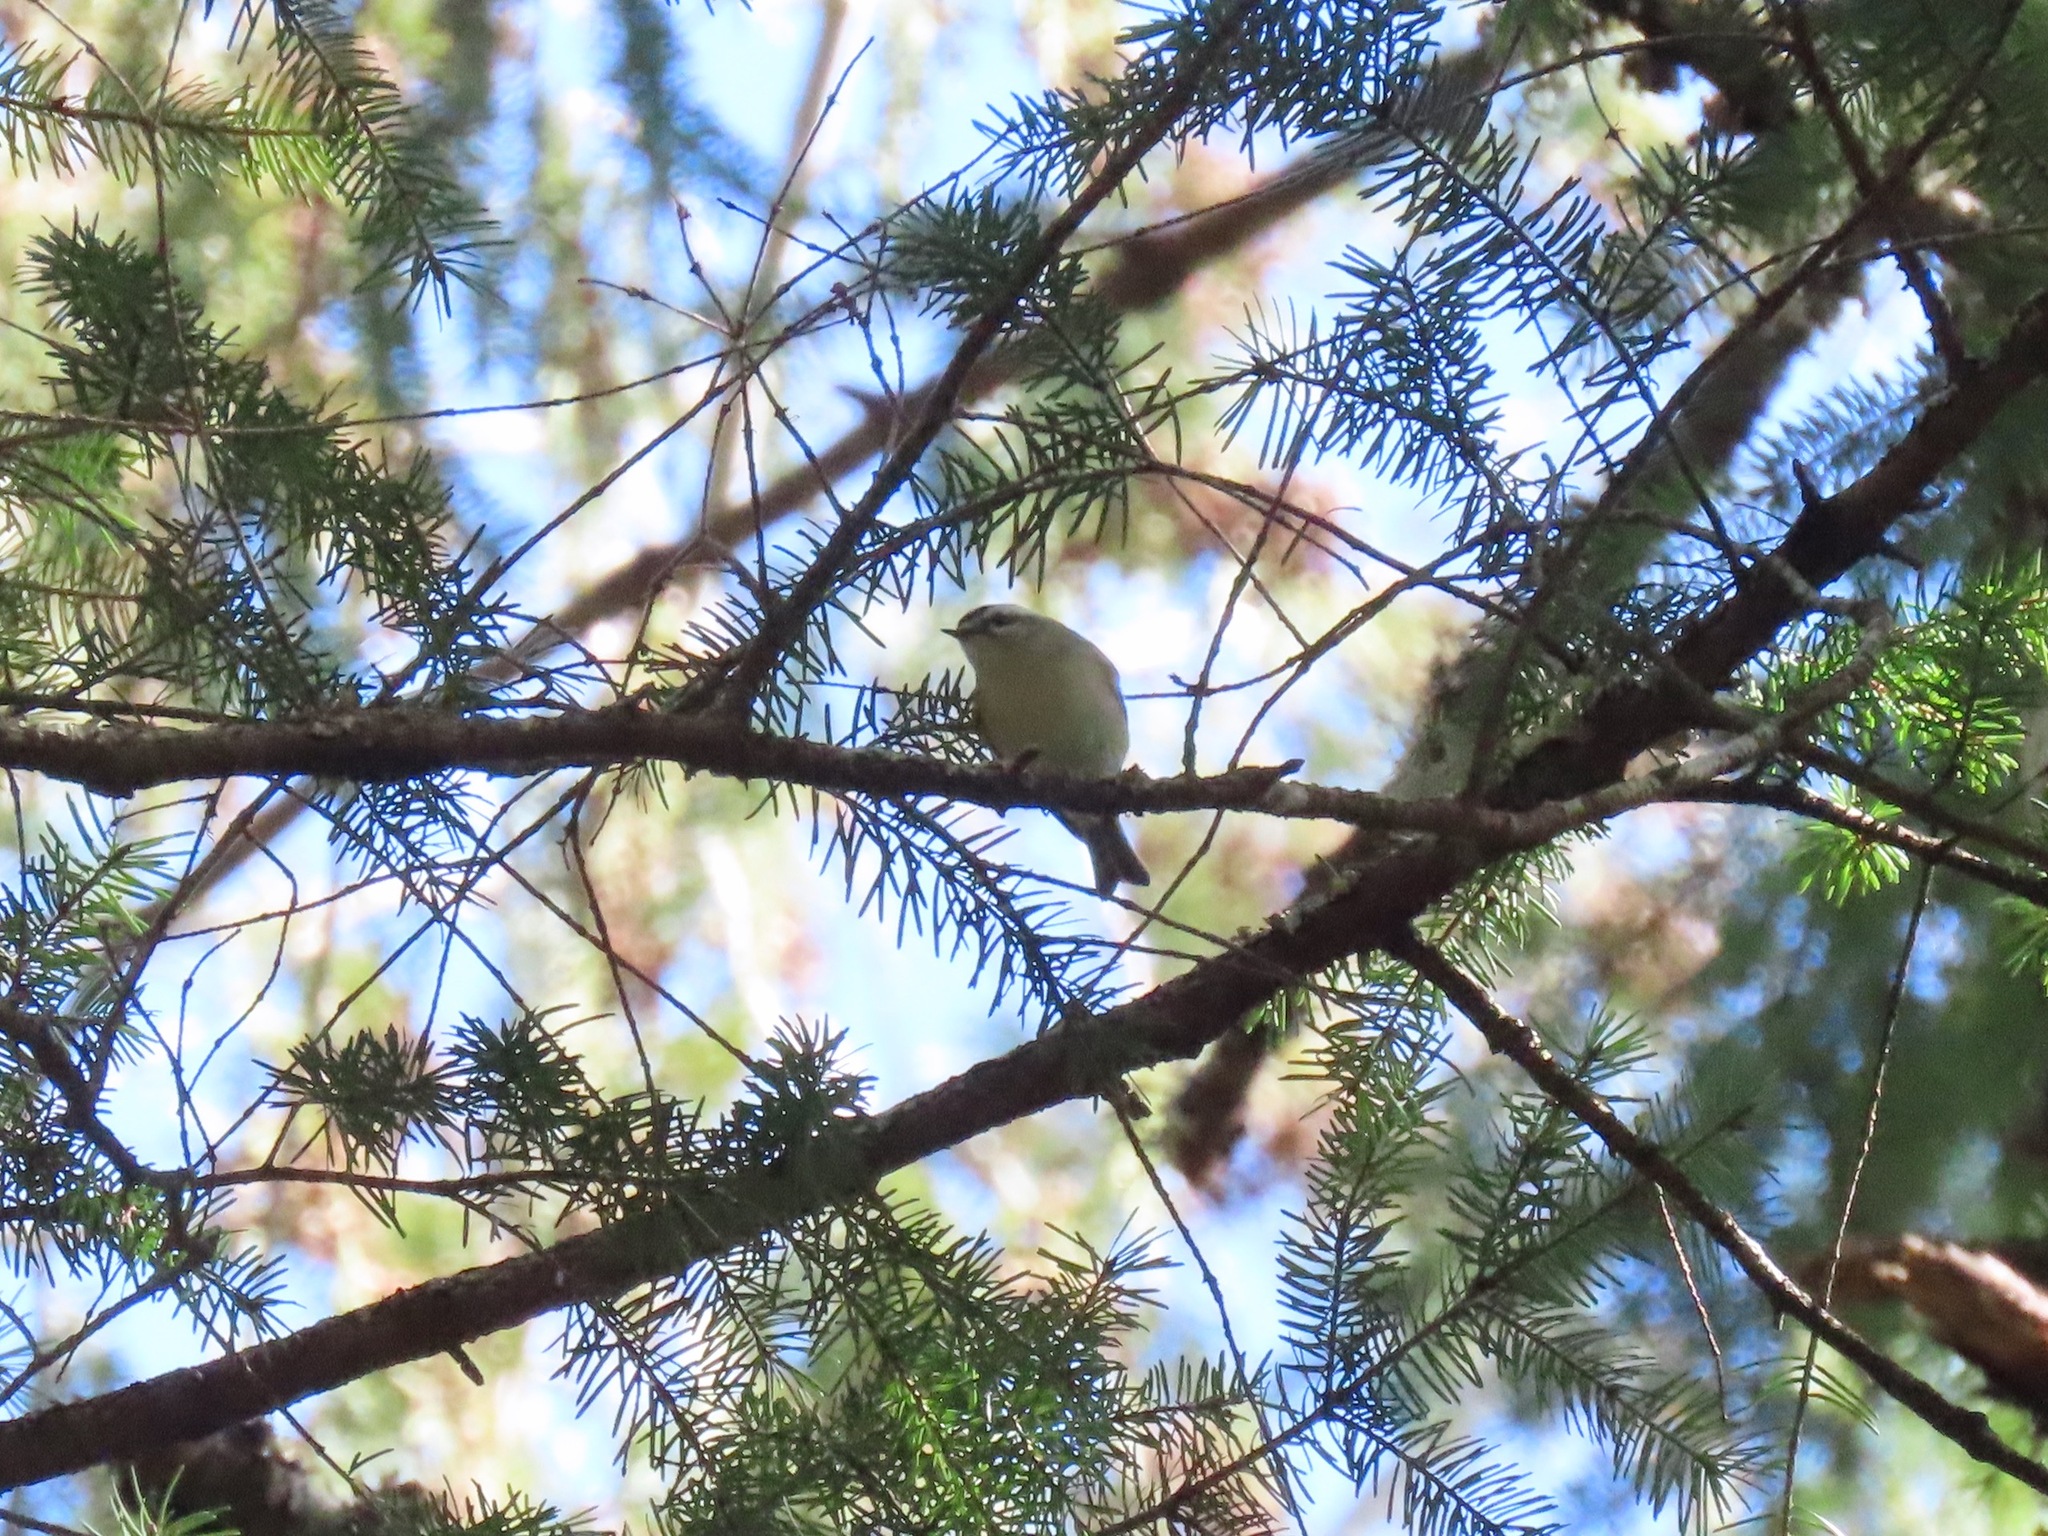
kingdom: Animalia
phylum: Chordata
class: Aves
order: Passeriformes
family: Regulidae
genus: Regulus
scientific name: Regulus satrapa
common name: Golden-crowned kinglet
